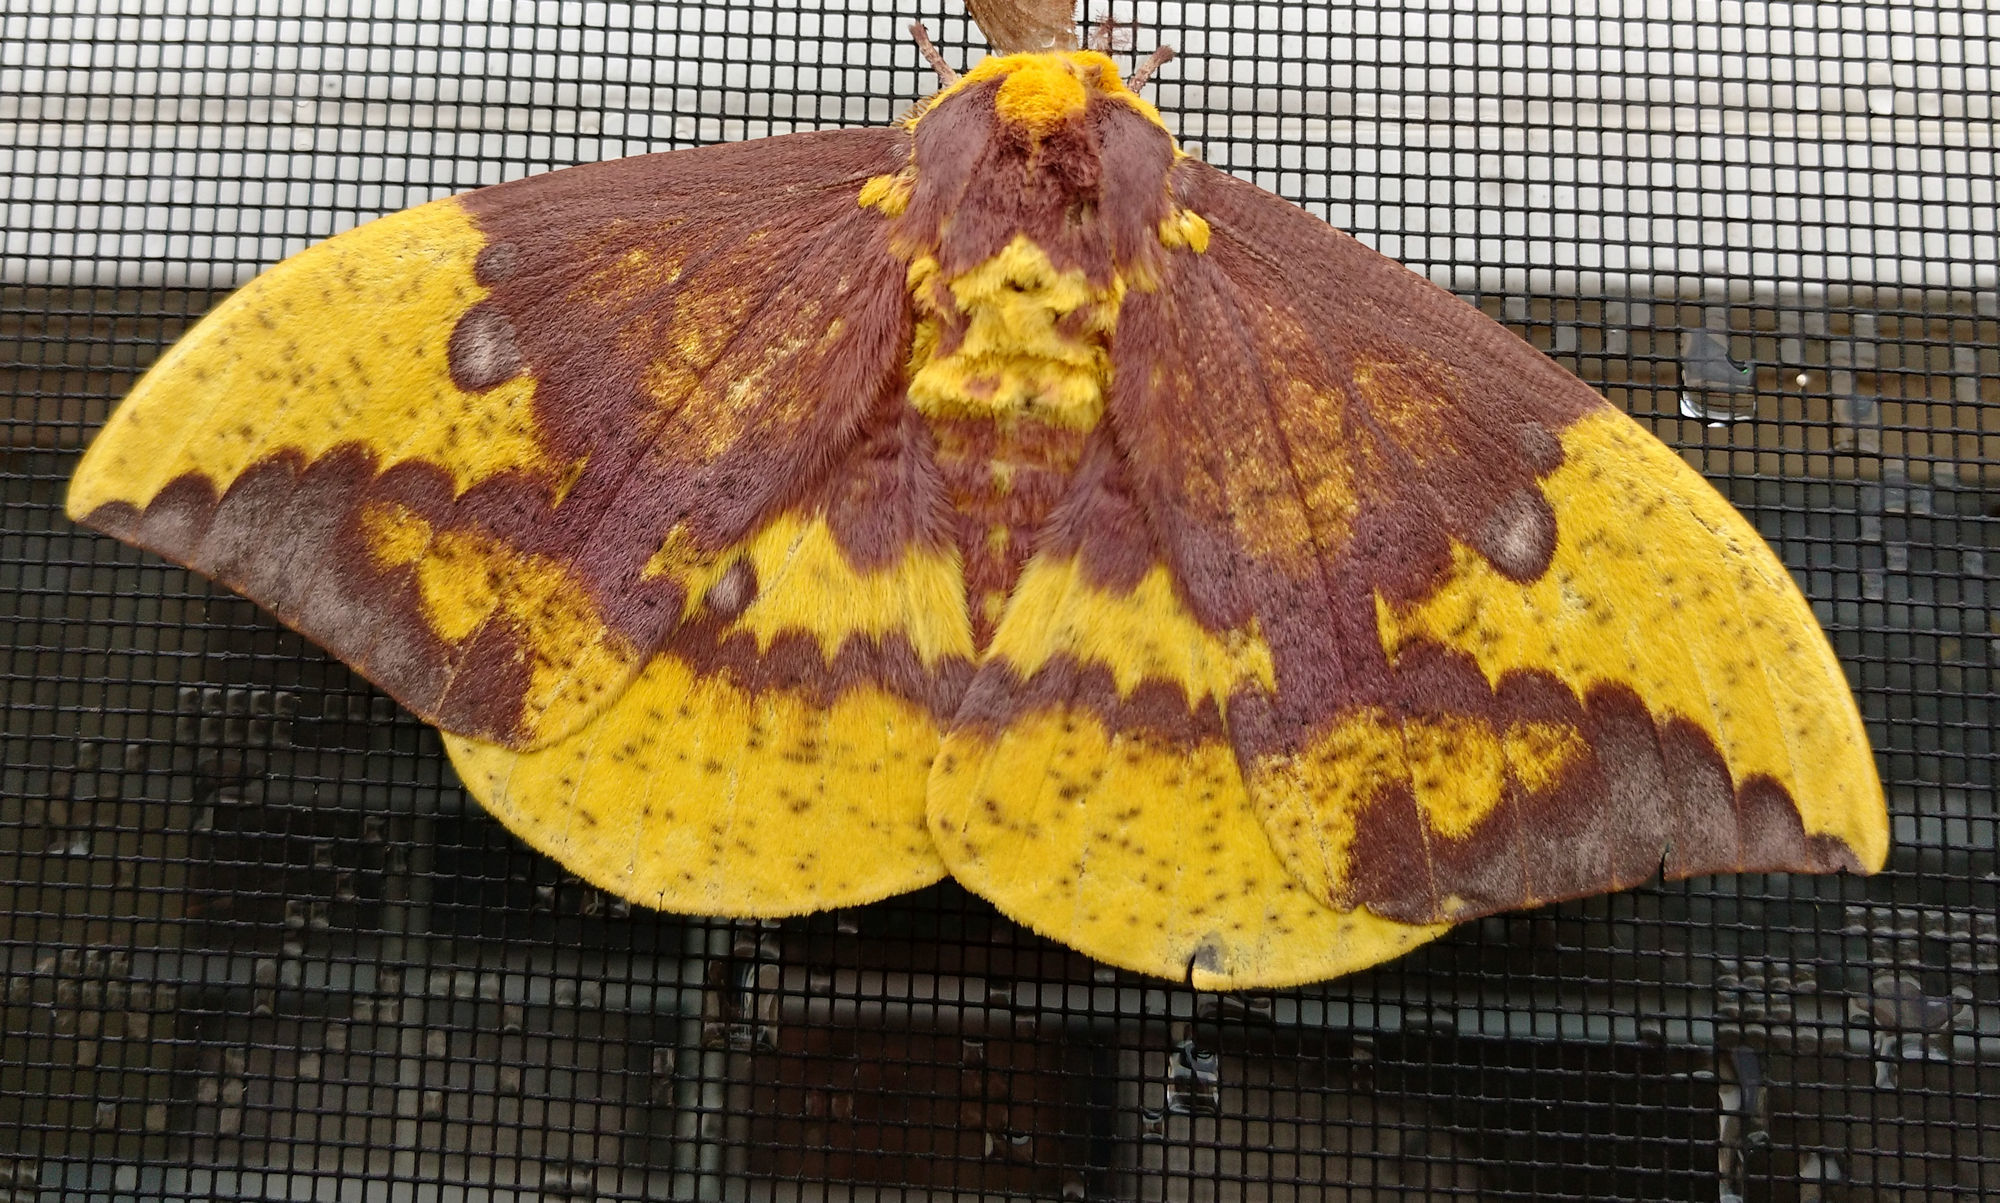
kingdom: Animalia
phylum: Arthropoda
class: Insecta
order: Lepidoptera
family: Saturniidae
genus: Eacles
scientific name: Eacles imperialis
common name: Imperial moth
